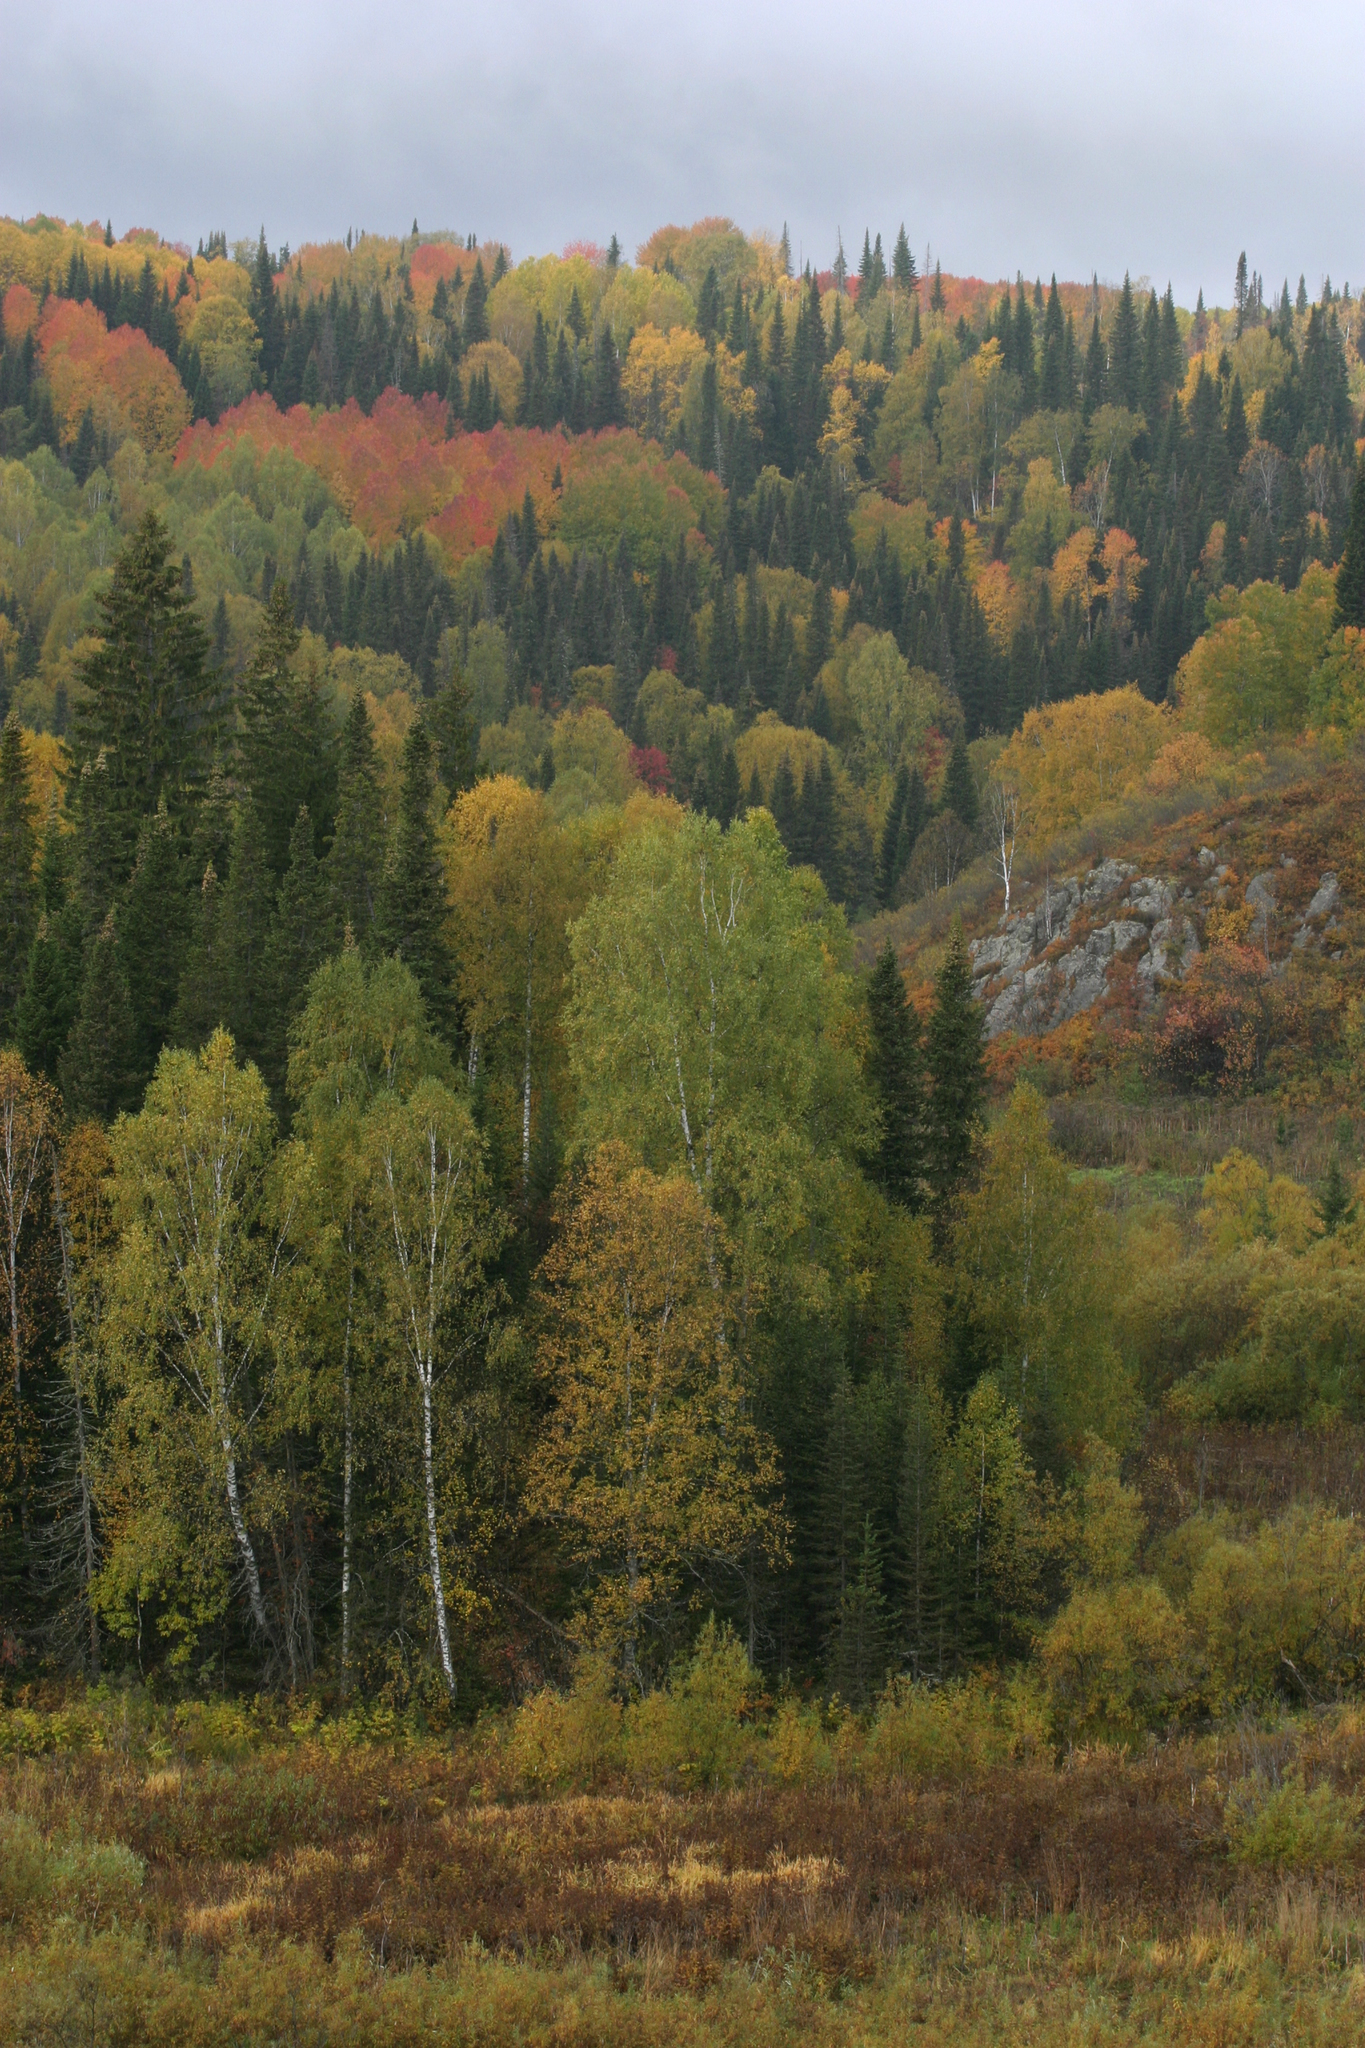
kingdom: Plantae
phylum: Tracheophyta
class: Magnoliopsida
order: Malpighiales
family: Salicaceae
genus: Populus
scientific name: Populus tremula
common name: European aspen
